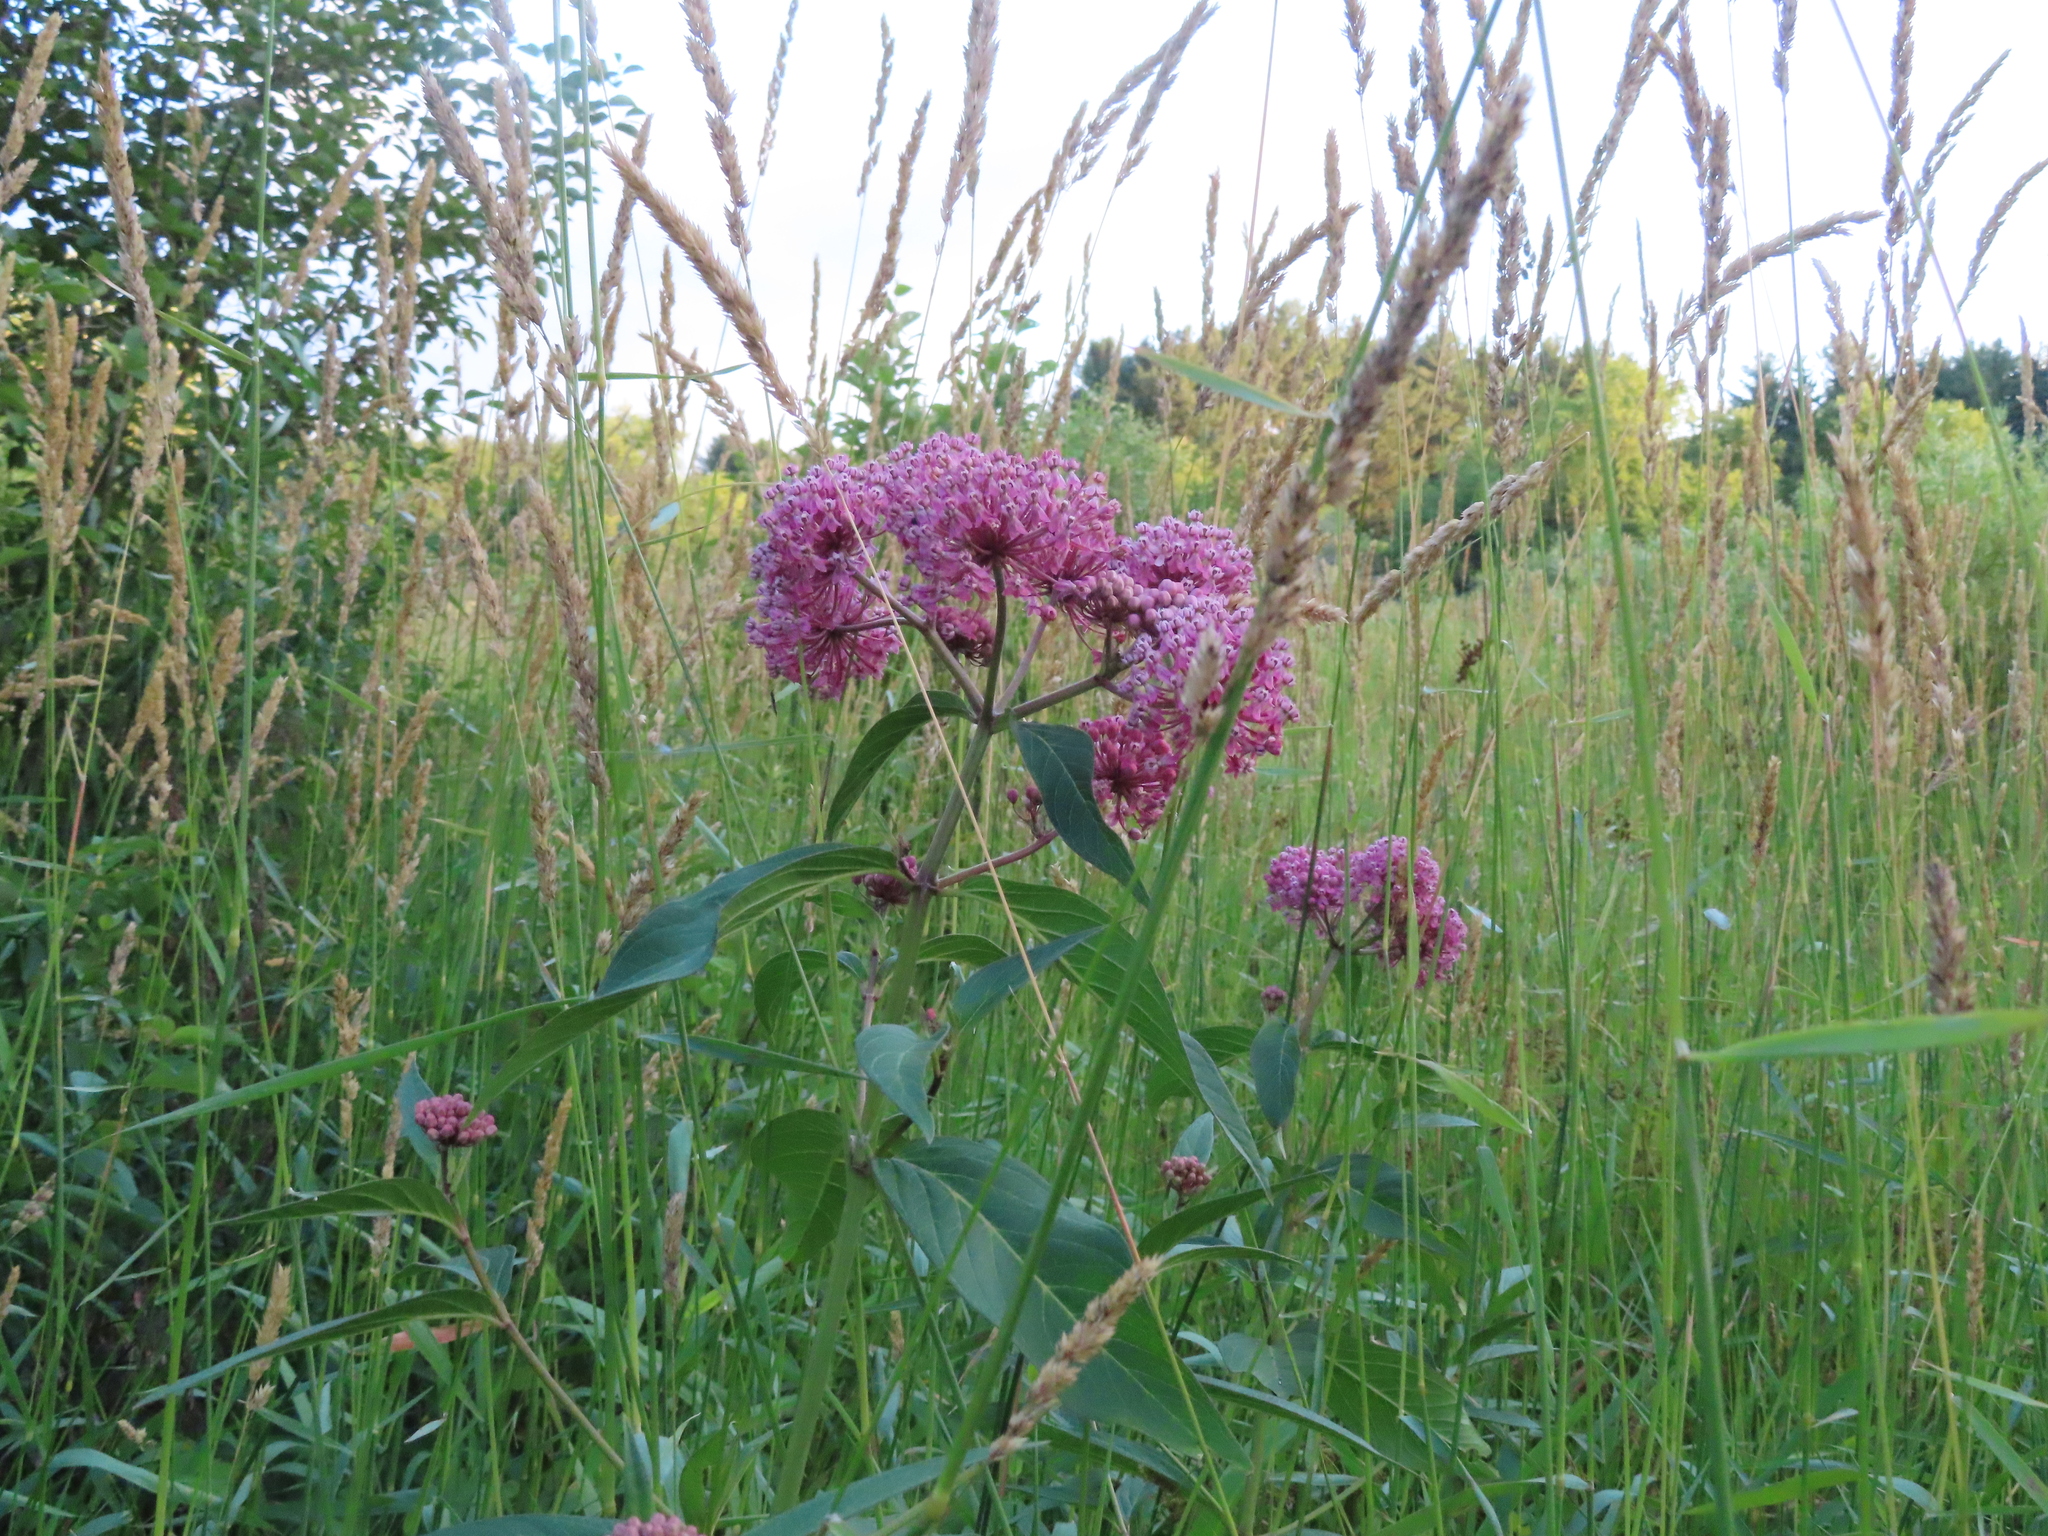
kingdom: Plantae
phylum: Tracheophyta
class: Magnoliopsida
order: Gentianales
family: Apocynaceae
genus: Asclepias
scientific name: Asclepias incarnata
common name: Swamp milkweed
